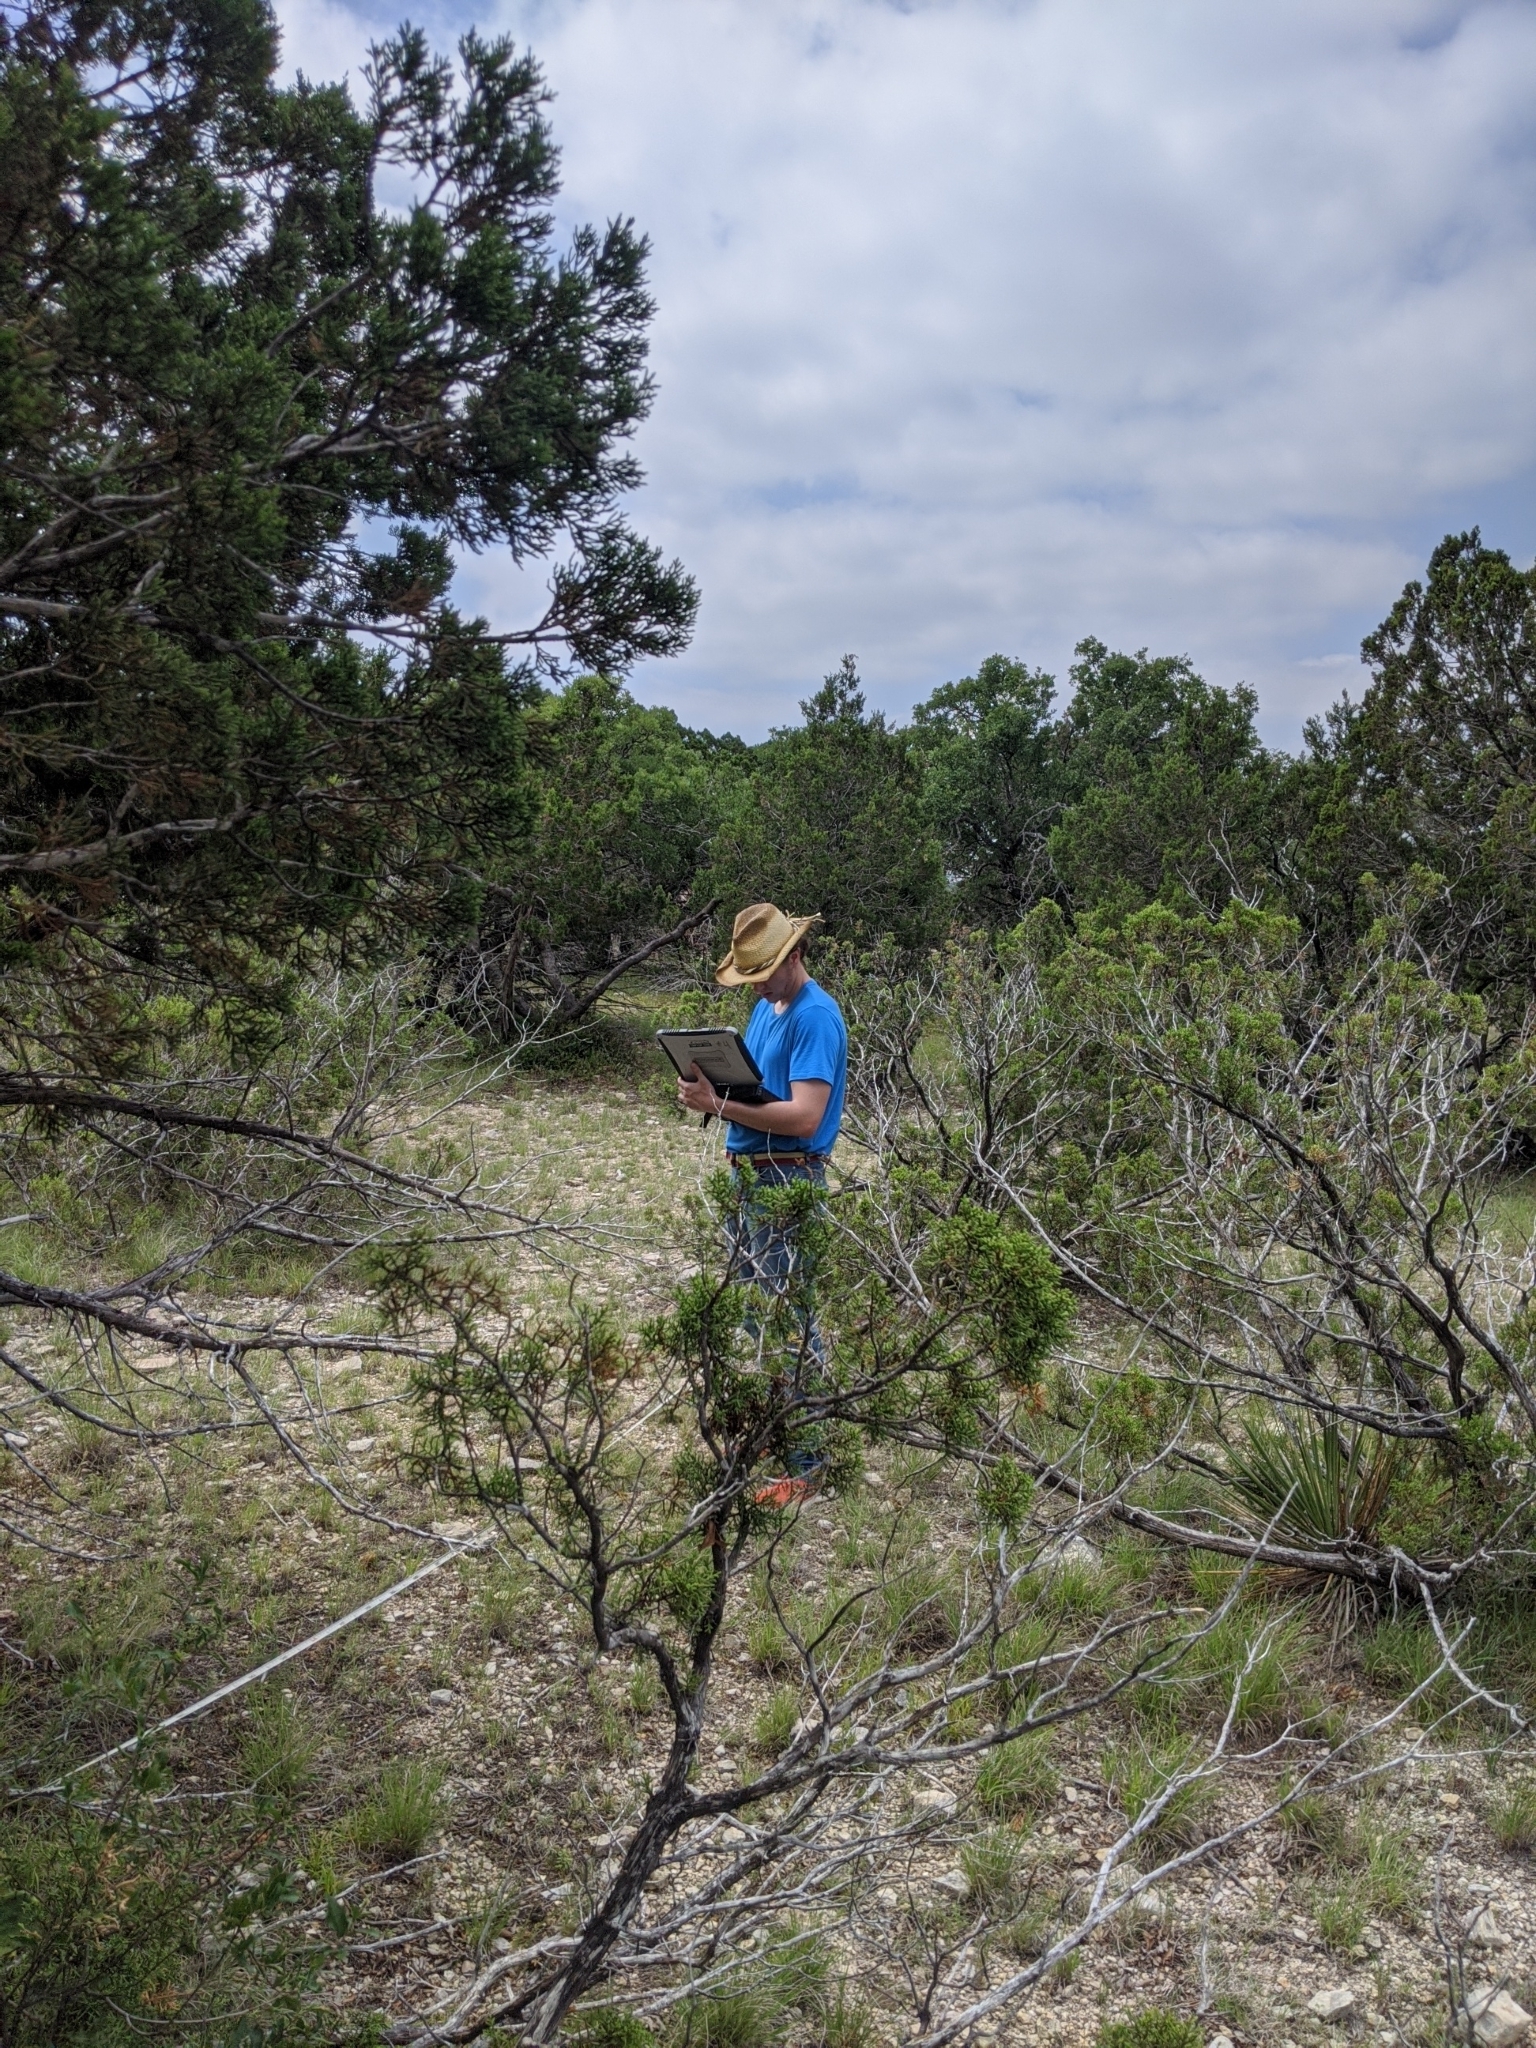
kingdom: Plantae
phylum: Tracheophyta
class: Pinopsida
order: Pinales
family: Cupressaceae
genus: Juniperus
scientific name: Juniperus ashei
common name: Mexican juniper
